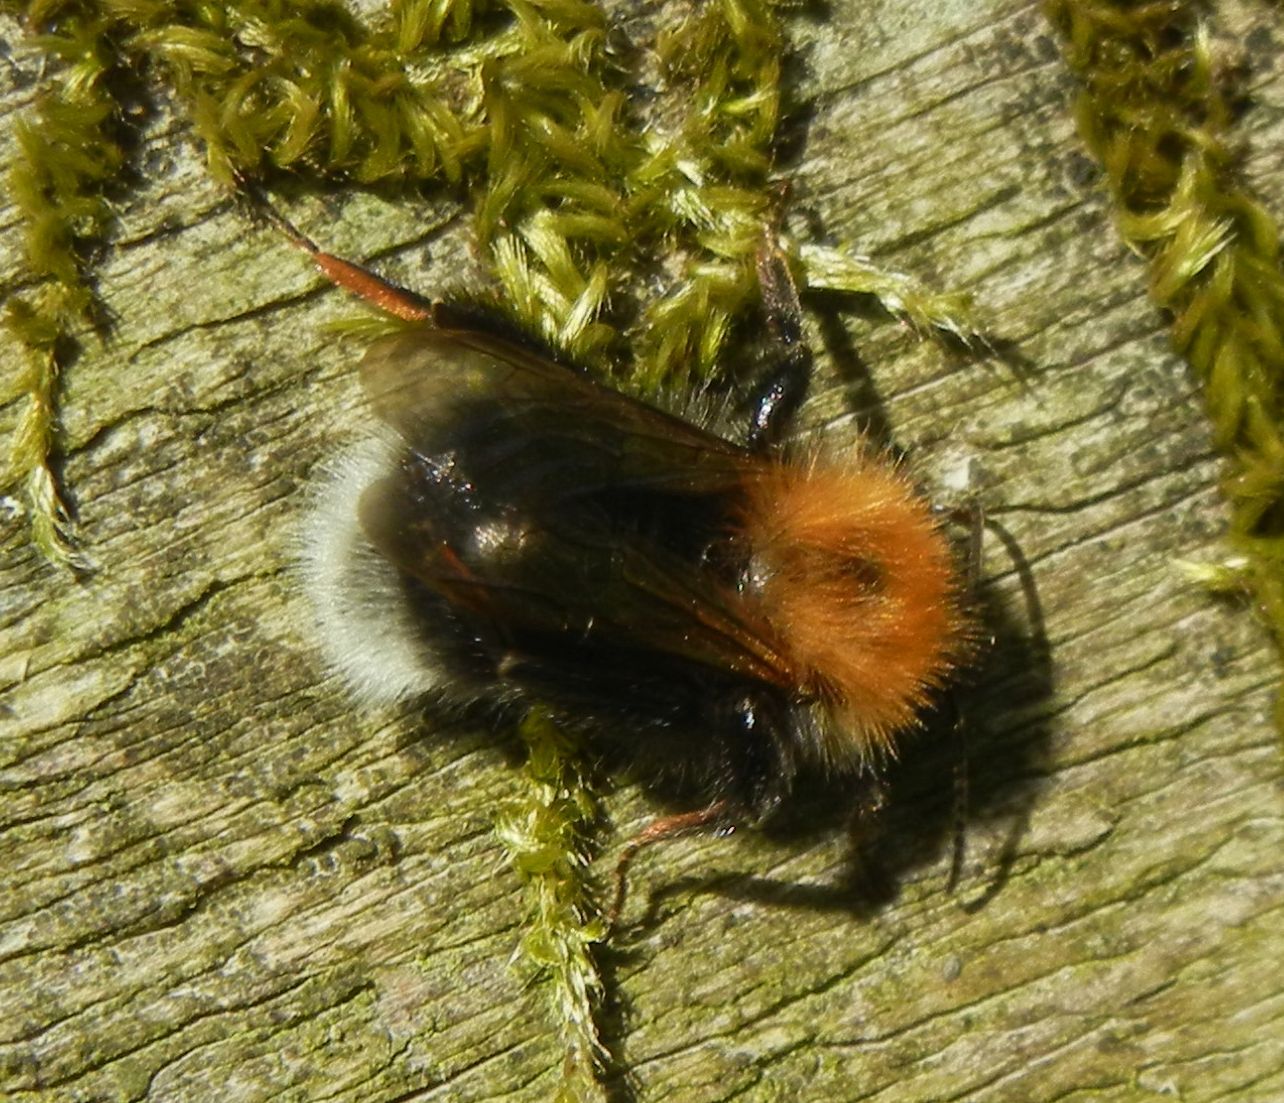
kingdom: Animalia
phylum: Arthropoda
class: Insecta
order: Hymenoptera
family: Apidae
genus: Bombus
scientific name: Bombus hypnorum
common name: New garden bumblebee
